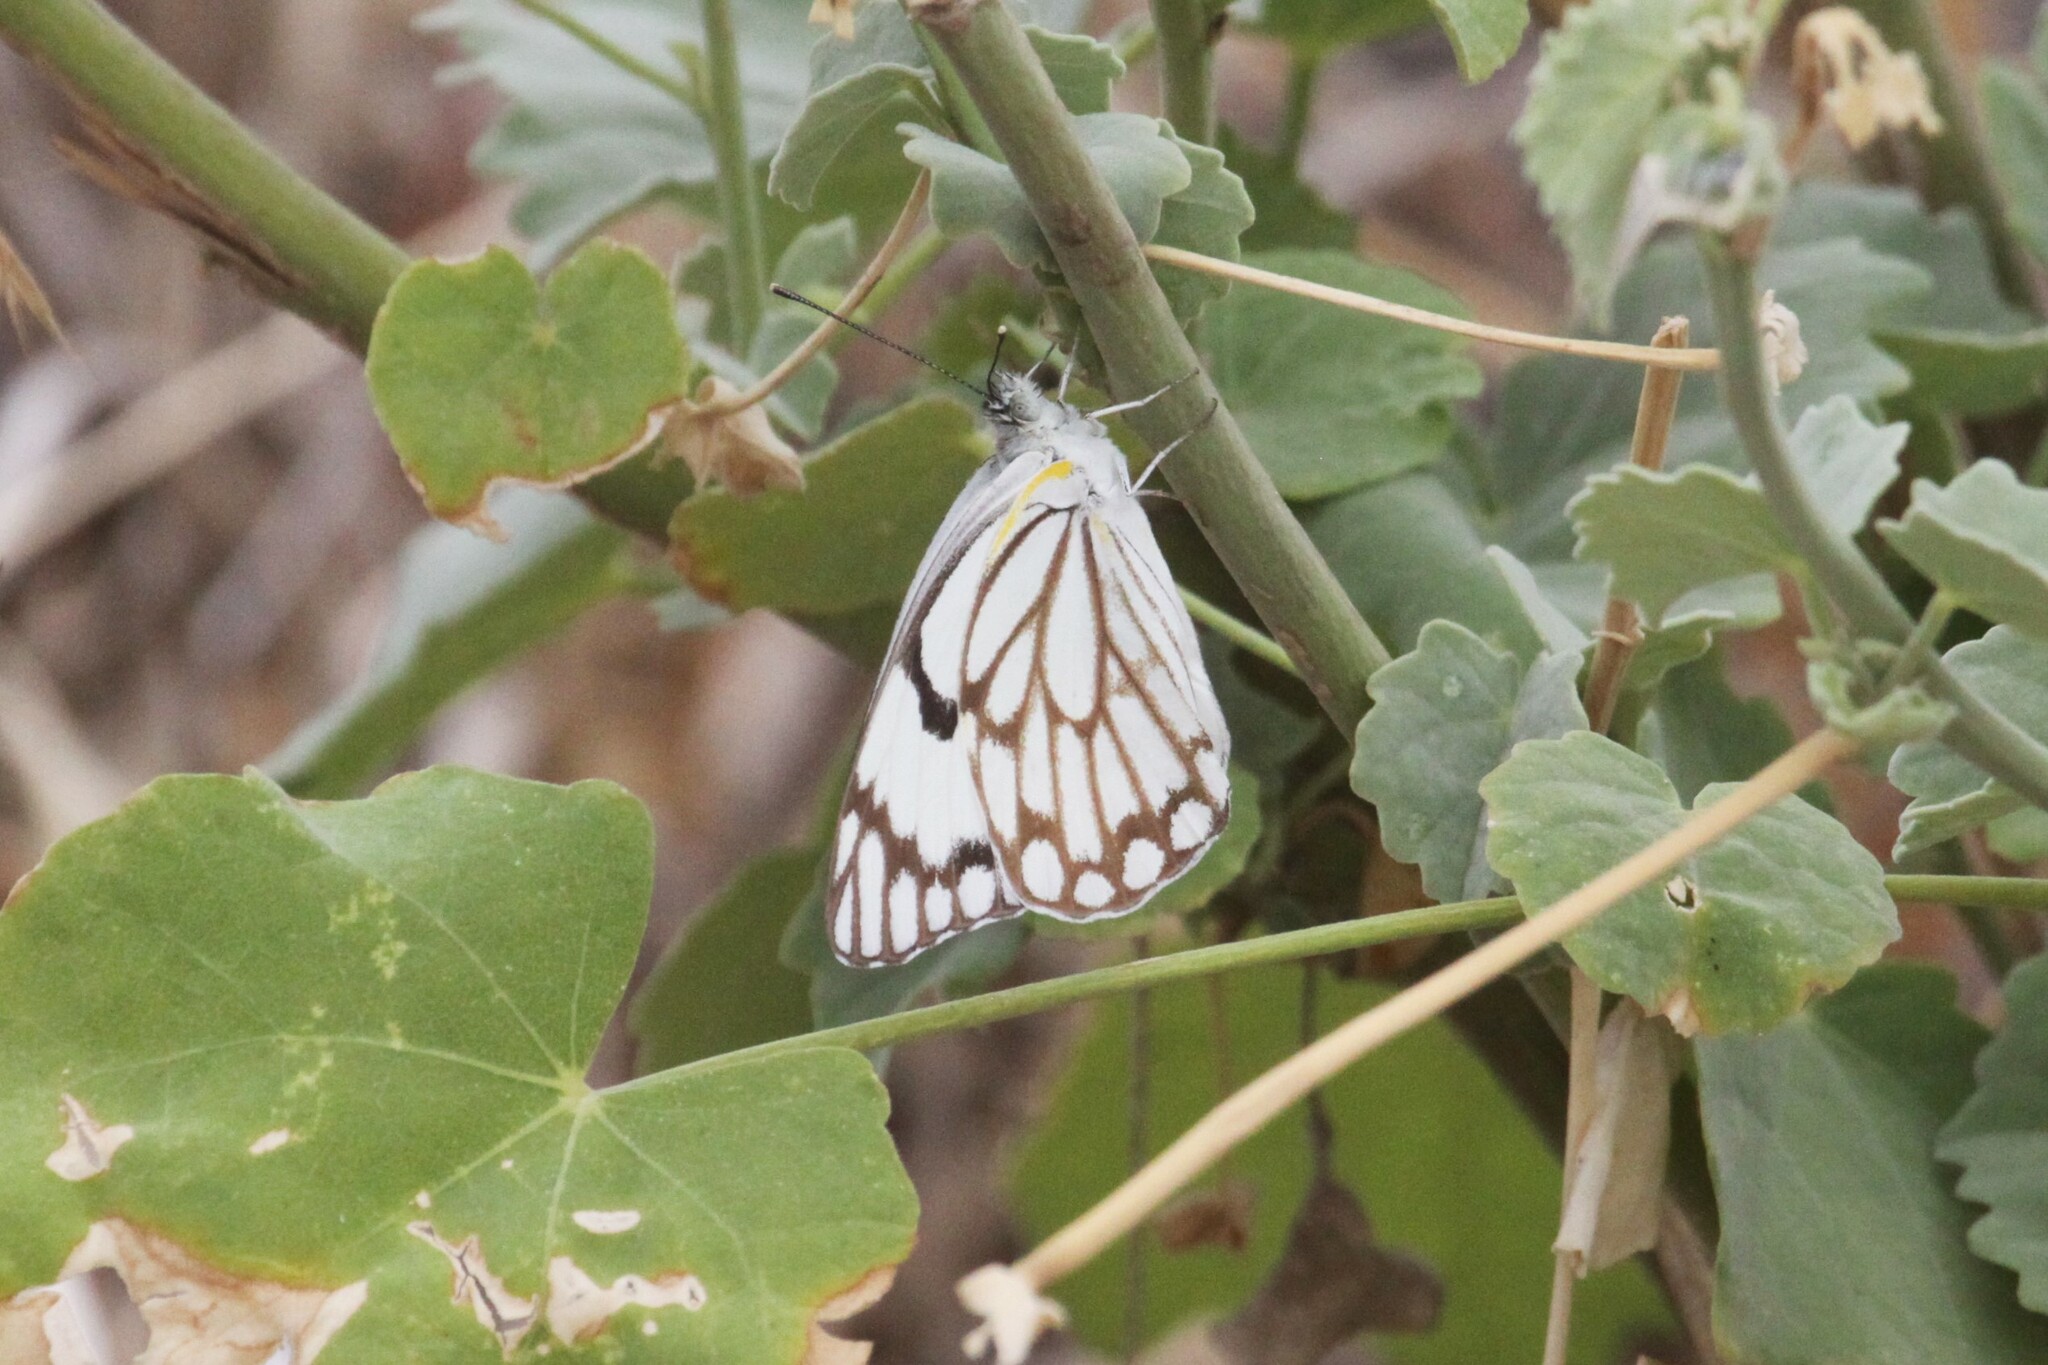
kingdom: Animalia
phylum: Arthropoda
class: Insecta
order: Lepidoptera
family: Pieridae
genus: Belenois
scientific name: Belenois aurota
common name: Brown-veined white
